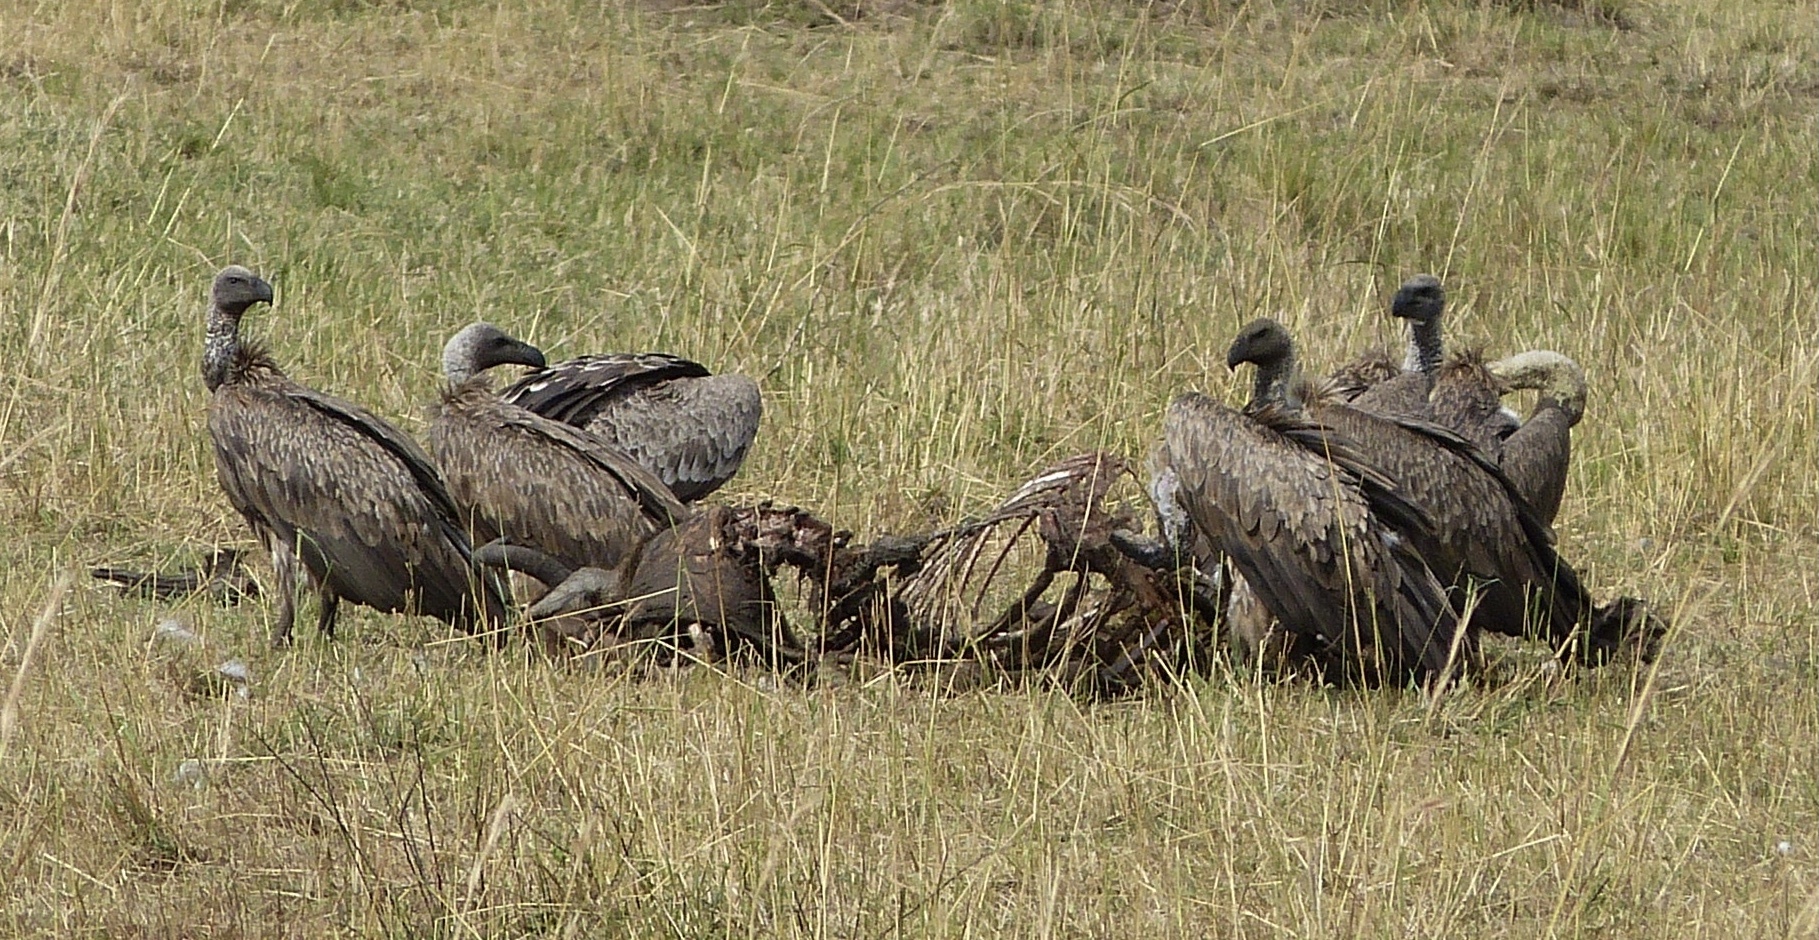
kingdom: Animalia
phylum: Chordata
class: Aves
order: Accipitriformes
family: Accipitridae
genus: Gyps
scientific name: Gyps africanus
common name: White-backed vulture
